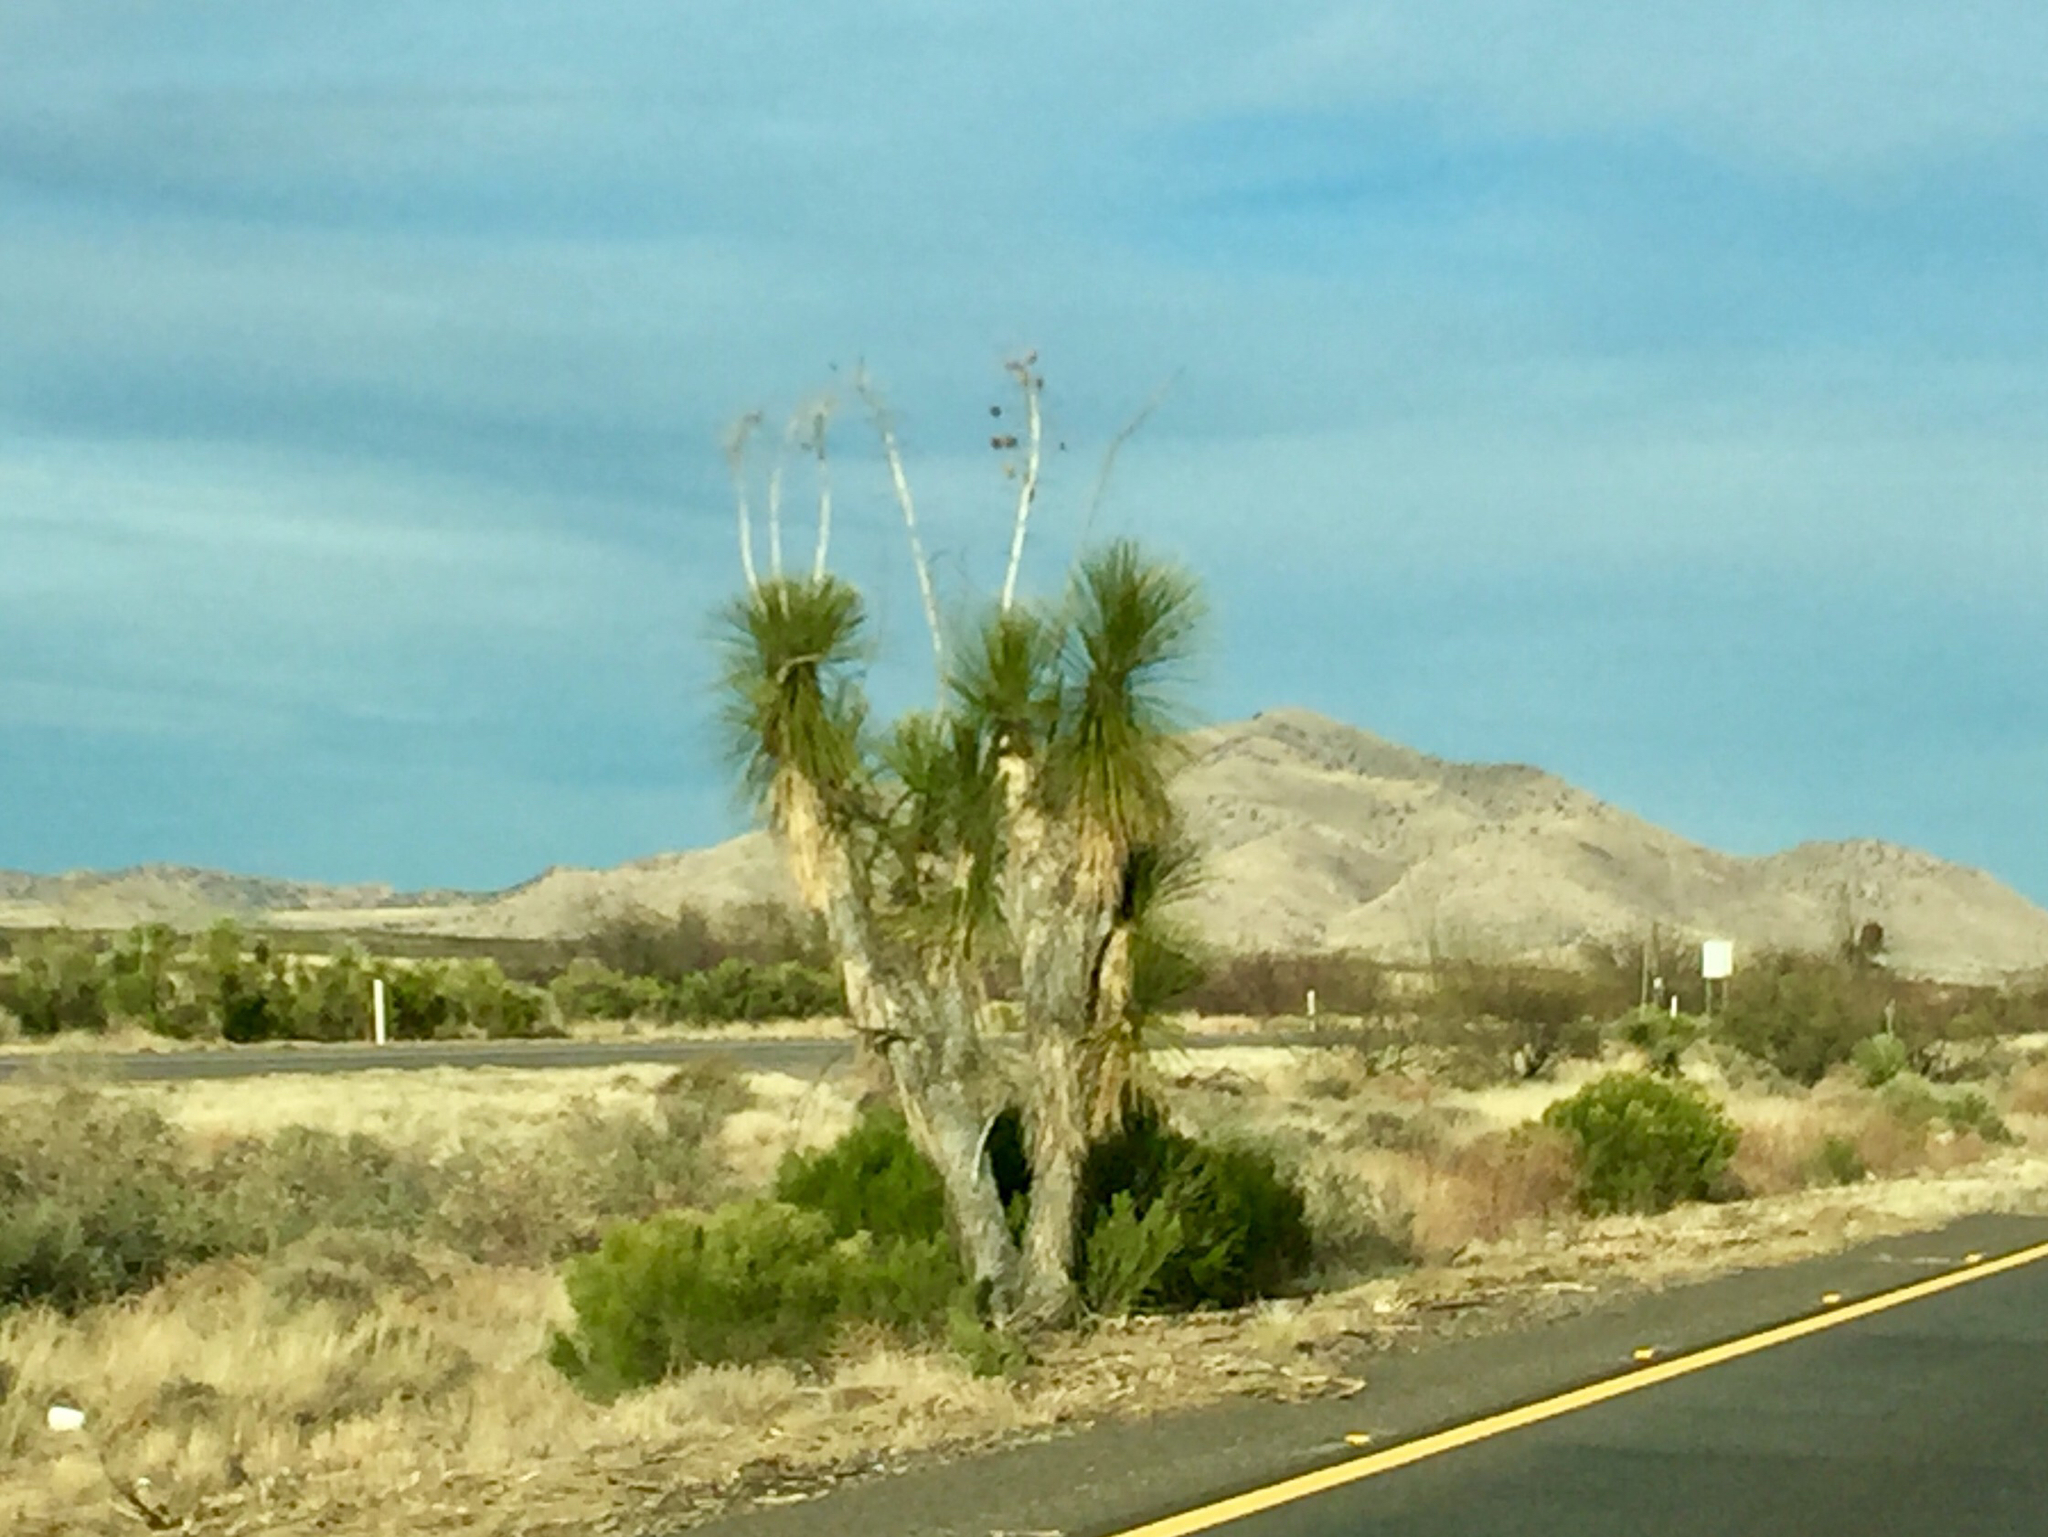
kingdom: Plantae
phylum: Tracheophyta
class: Liliopsida
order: Asparagales
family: Asparagaceae
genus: Yucca
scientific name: Yucca elata
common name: Palmella
